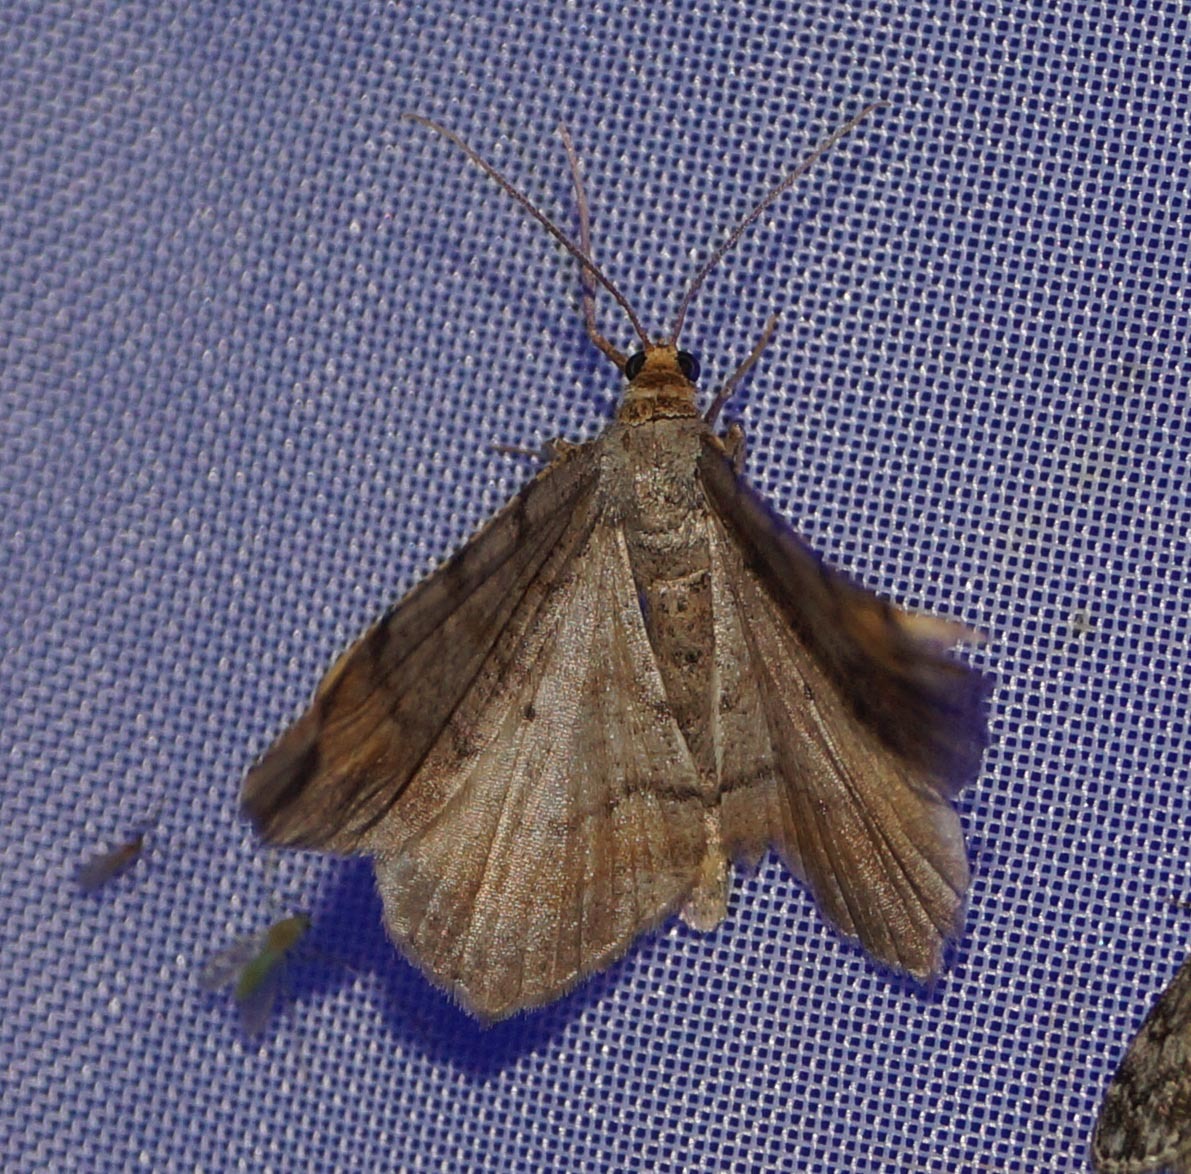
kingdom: Animalia
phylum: Arthropoda
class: Insecta
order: Lepidoptera
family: Geometridae
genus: Macaria
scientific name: Macaria liturata
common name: Tawny-barred angle
